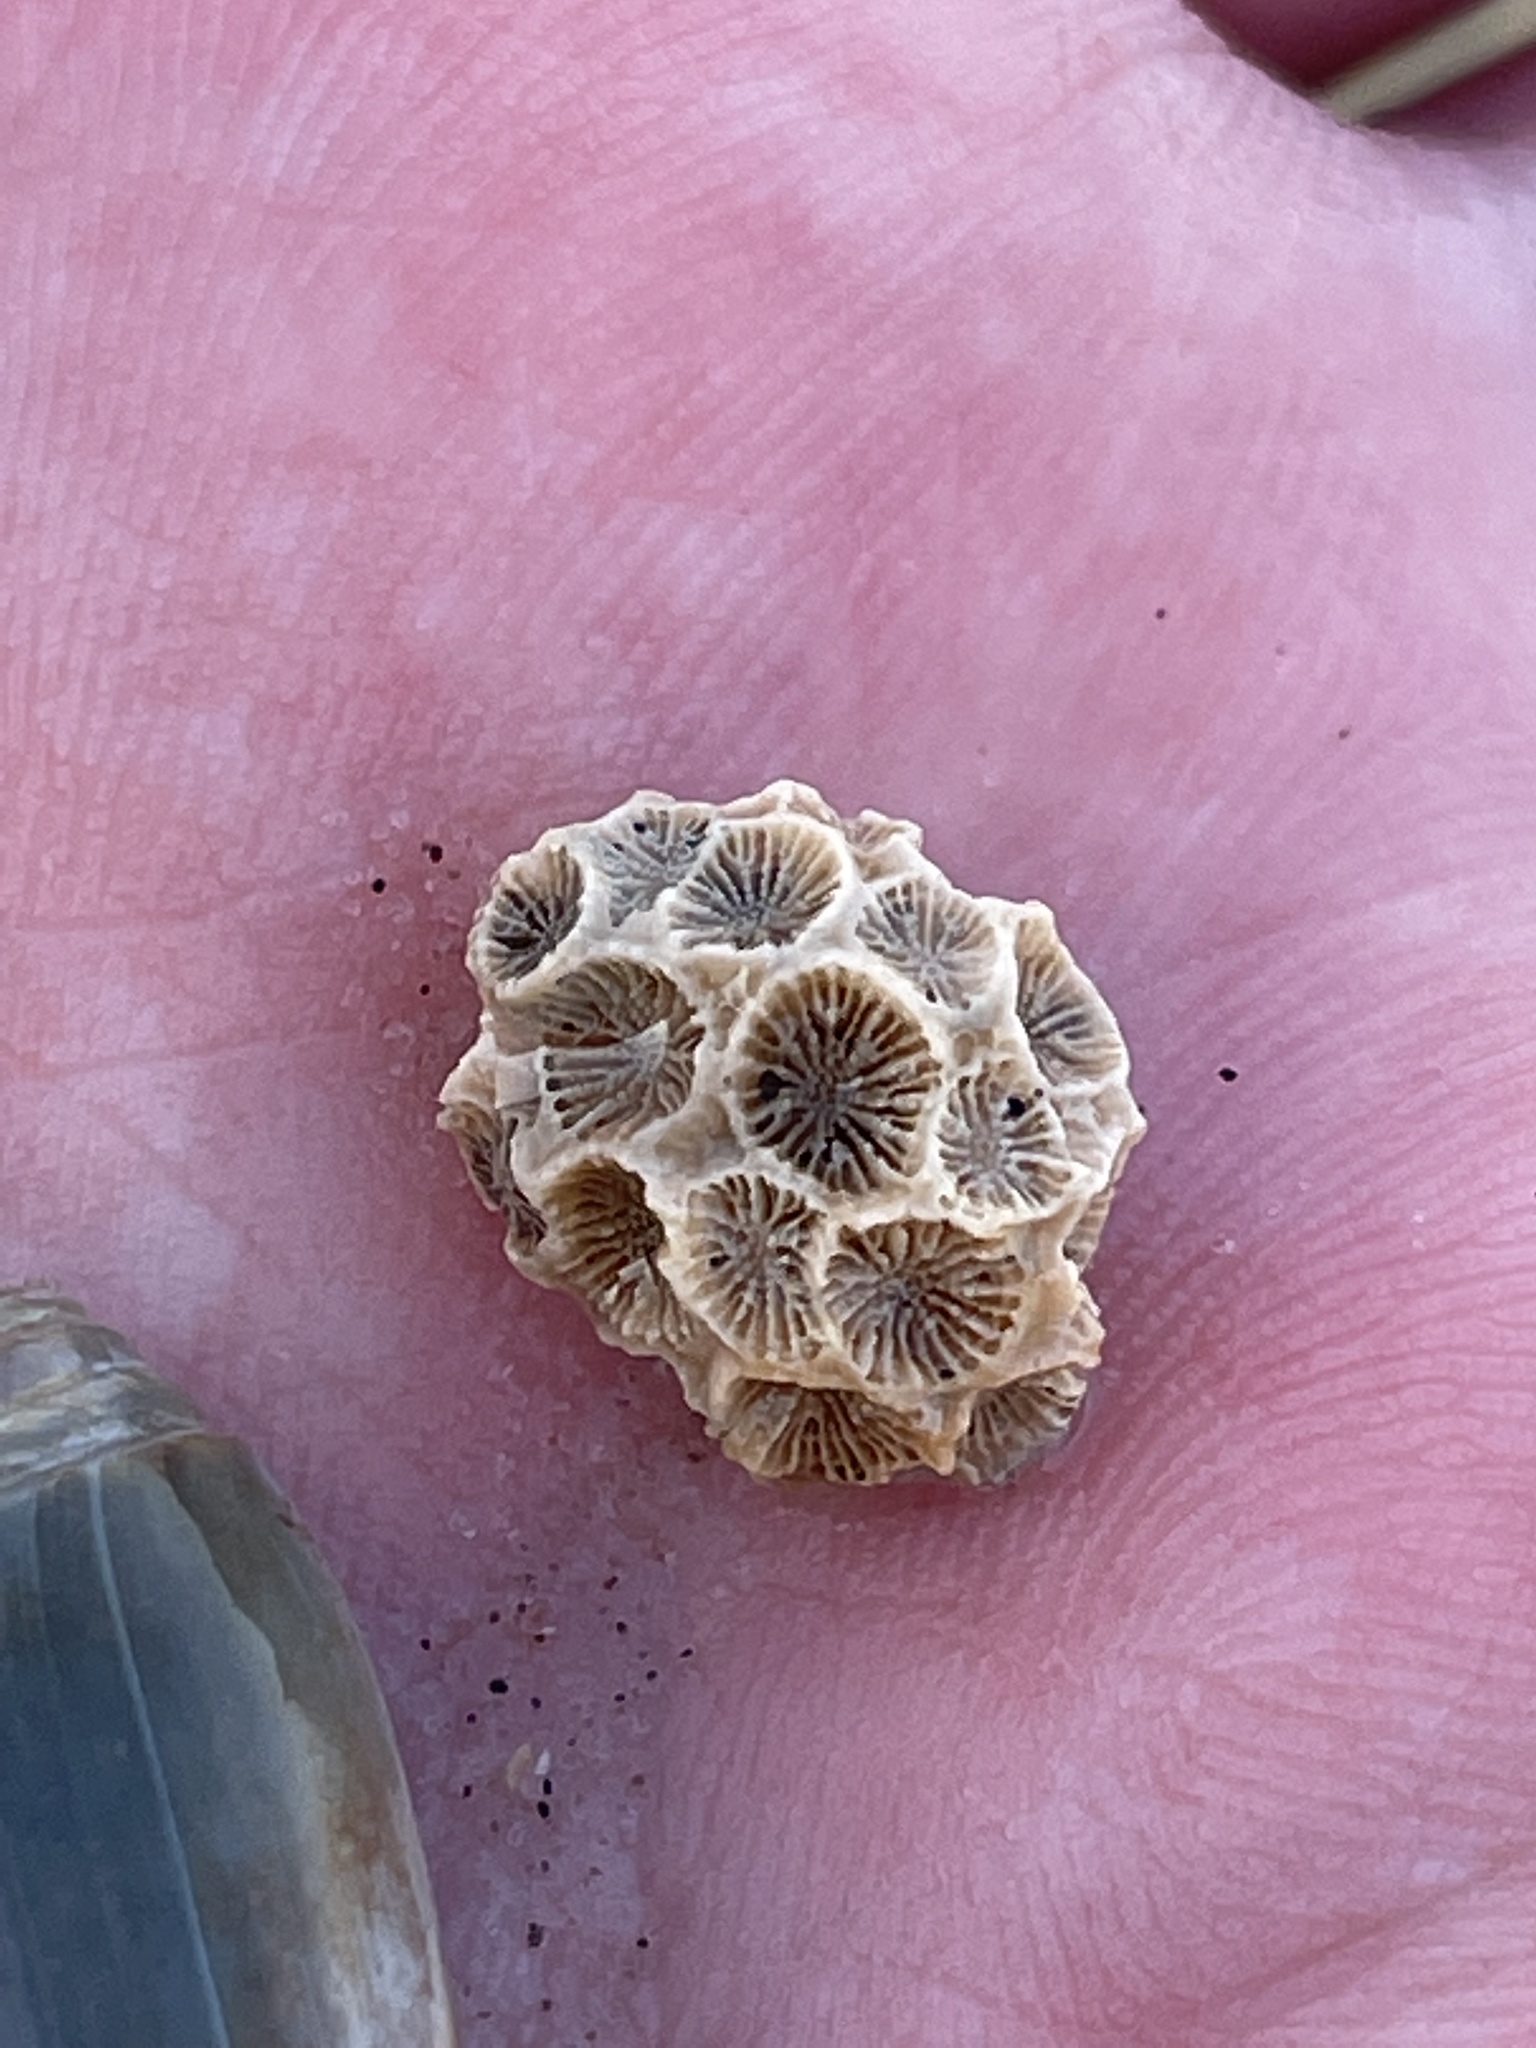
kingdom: Animalia
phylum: Cnidaria
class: Anthozoa
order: Scleractinia
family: Astrangiidae
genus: Astrangia
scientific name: Astrangia poculata
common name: Northern star coral
